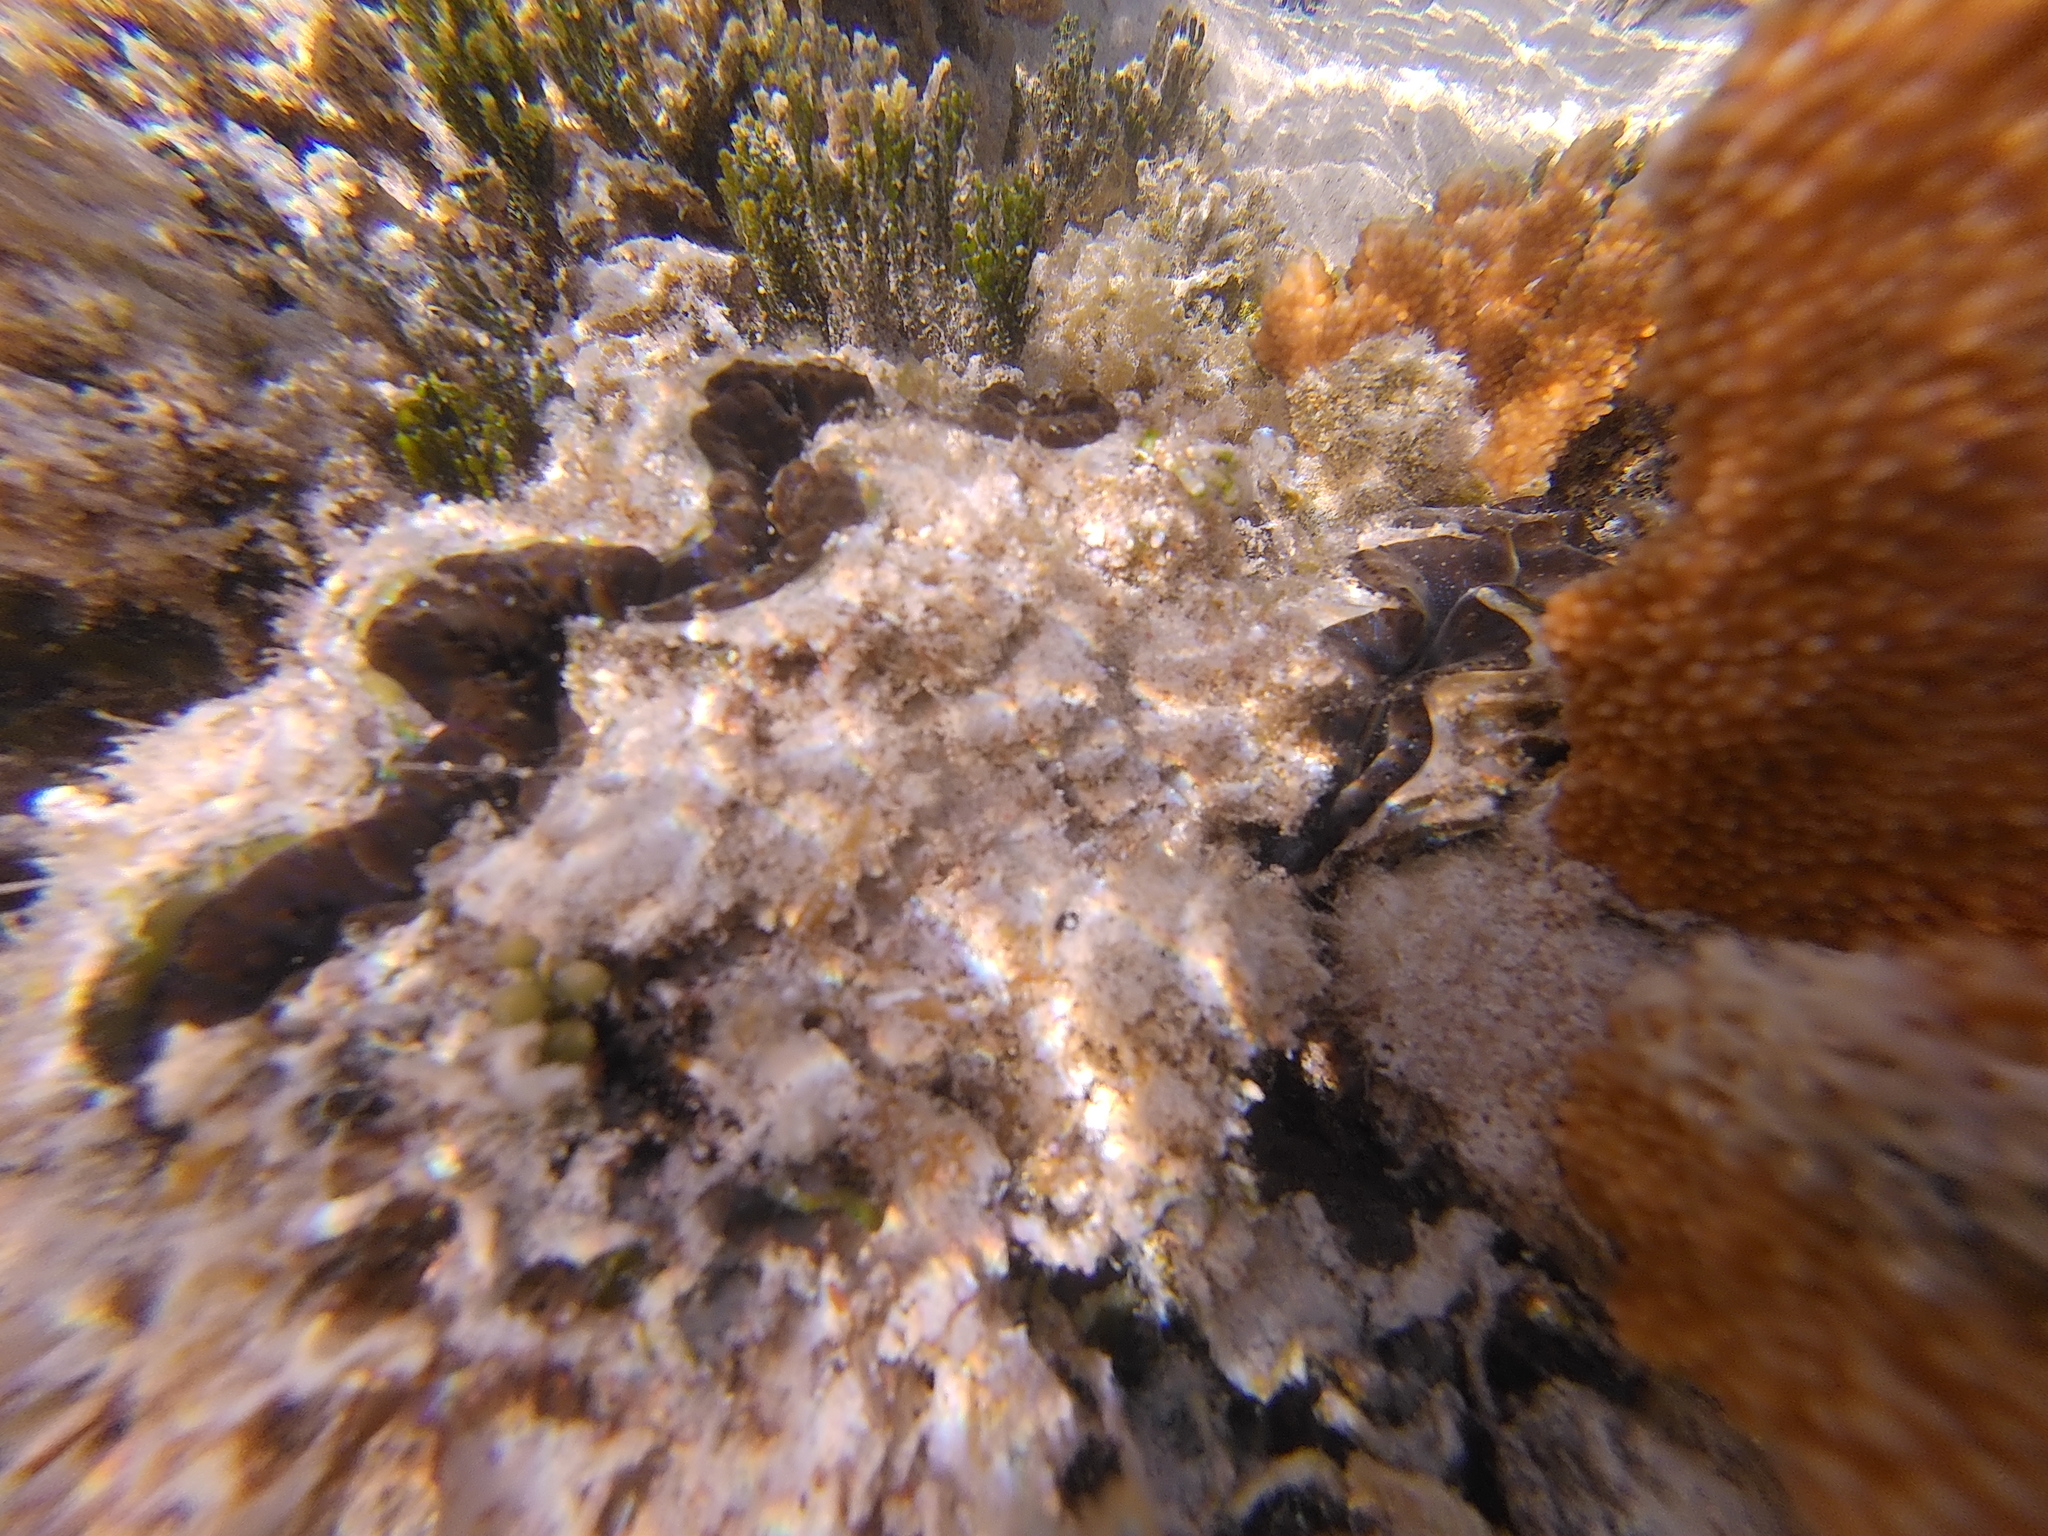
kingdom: Animalia
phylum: Mollusca
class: Bivalvia
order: Cardiida
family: Cardiidae
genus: Tridacna
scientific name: Tridacna maxima
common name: Small giant clam
